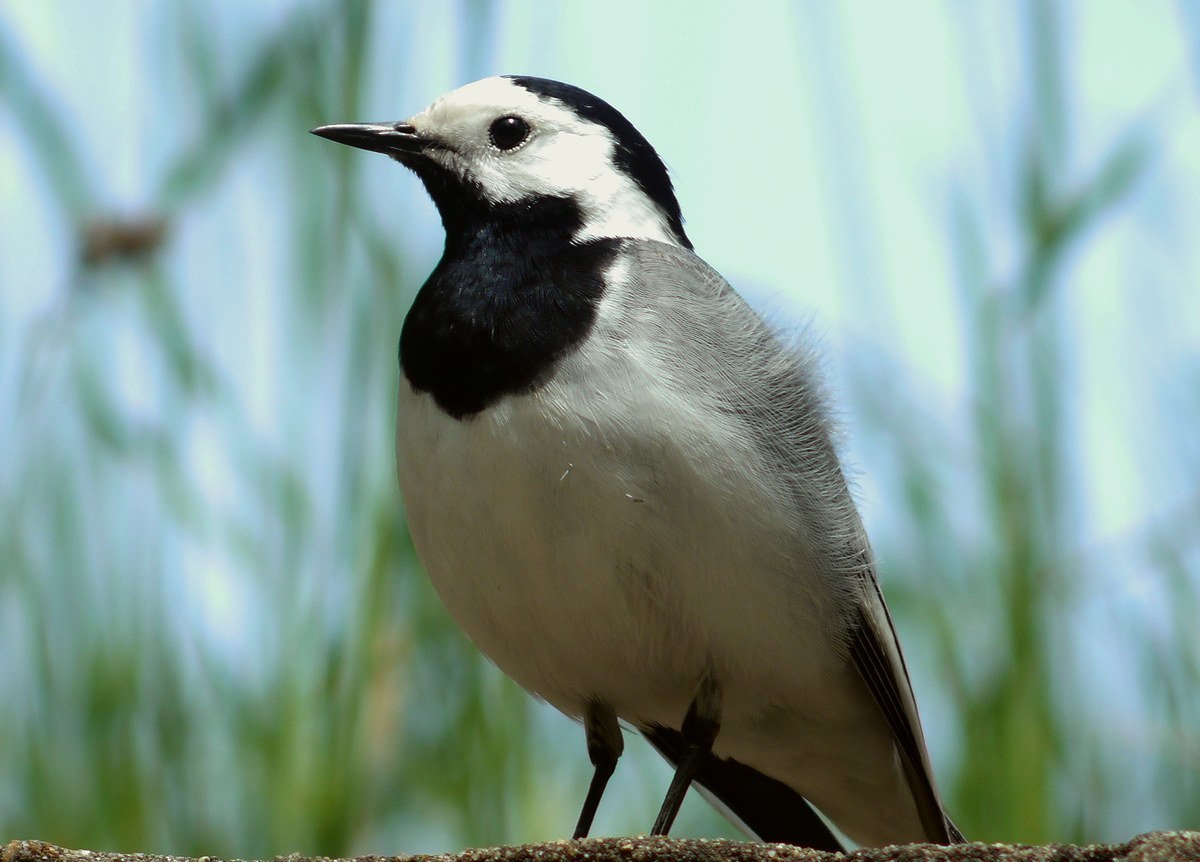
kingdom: Animalia
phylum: Chordata
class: Aves
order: Passeriformes
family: Motacillidae
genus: Motacilla
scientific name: Motacilla alba
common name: White wagtail
